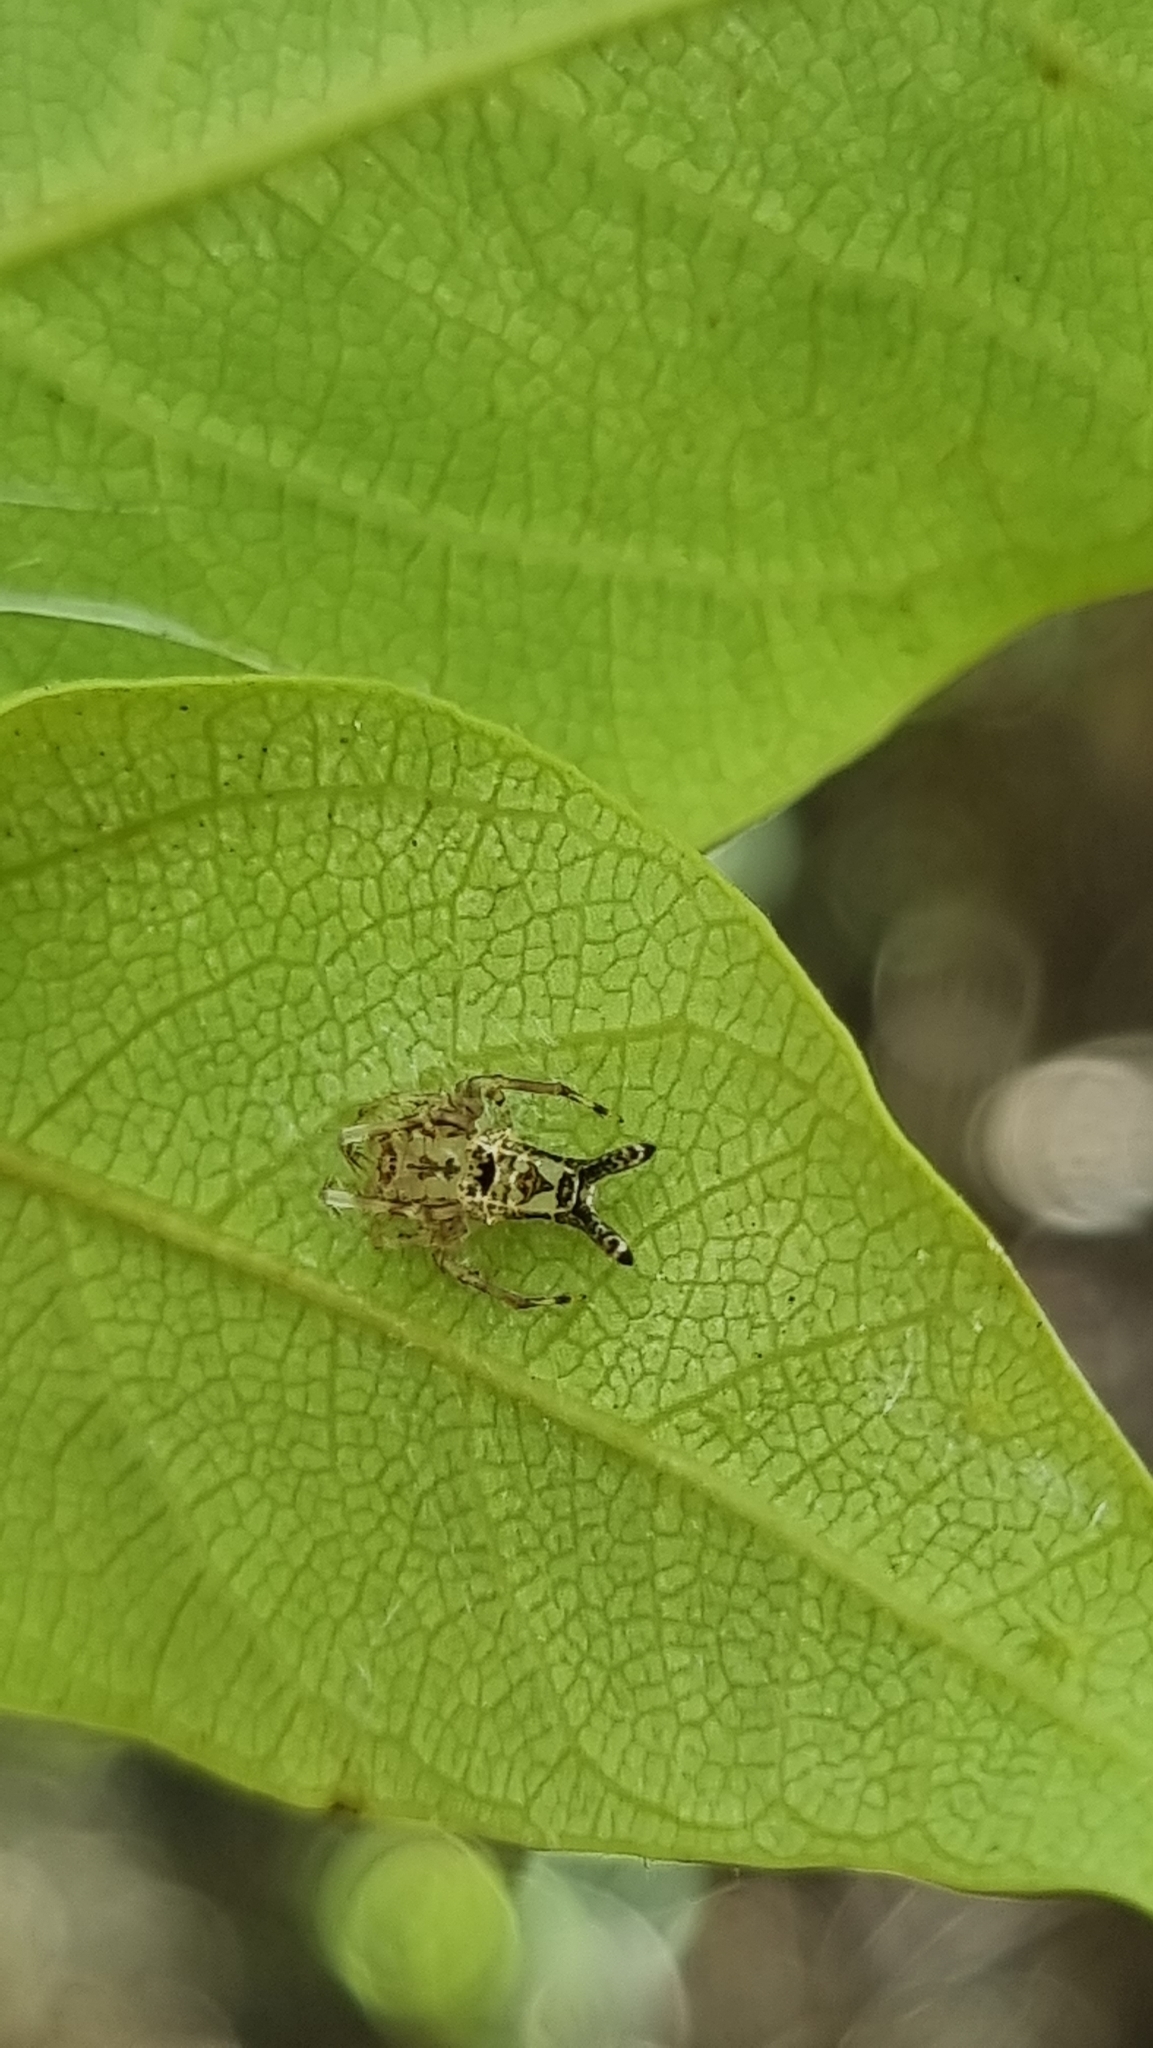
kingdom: Animalia
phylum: Arthropoda
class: Arachnida
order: Araneae
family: Arkyidae
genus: Arkys
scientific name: Arkys furcatus
